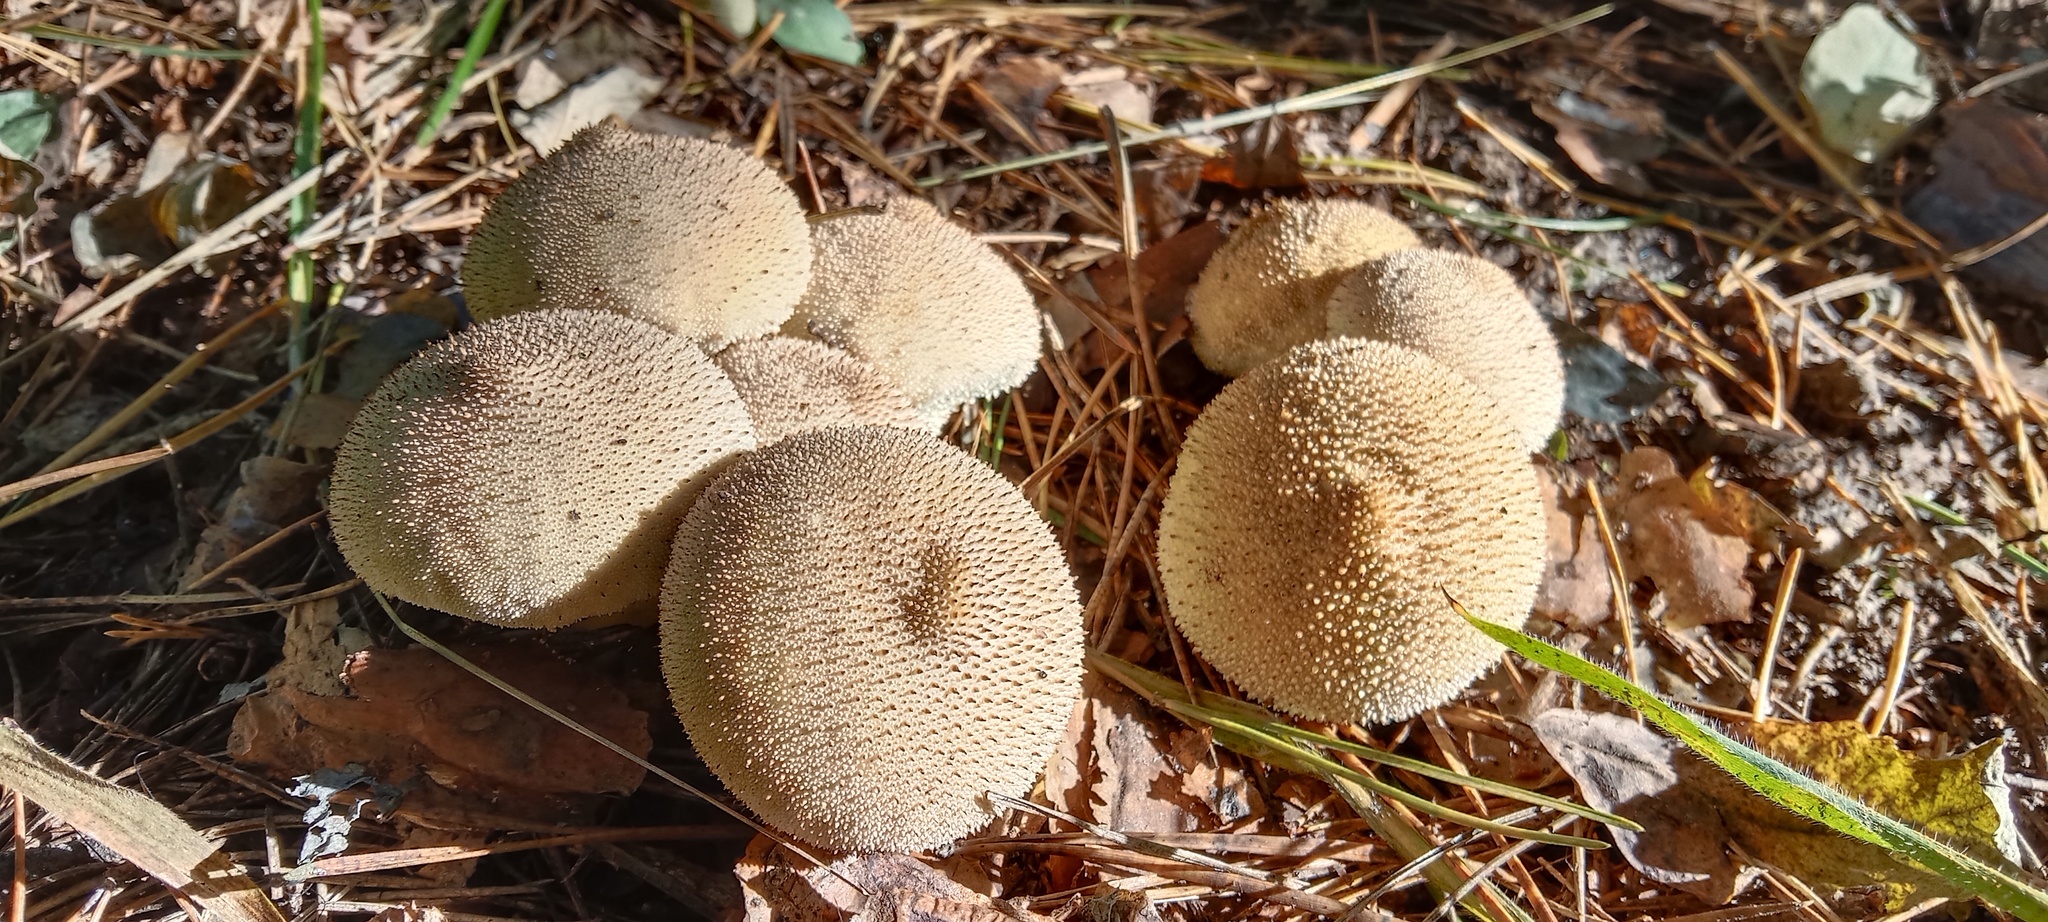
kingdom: Fungi
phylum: Basidiomycota
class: Agaricomycetes
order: Agaricales
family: Lycoperdaceae
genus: Lycoperdon
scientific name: Lycoperdon perlatum
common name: Common puffball
